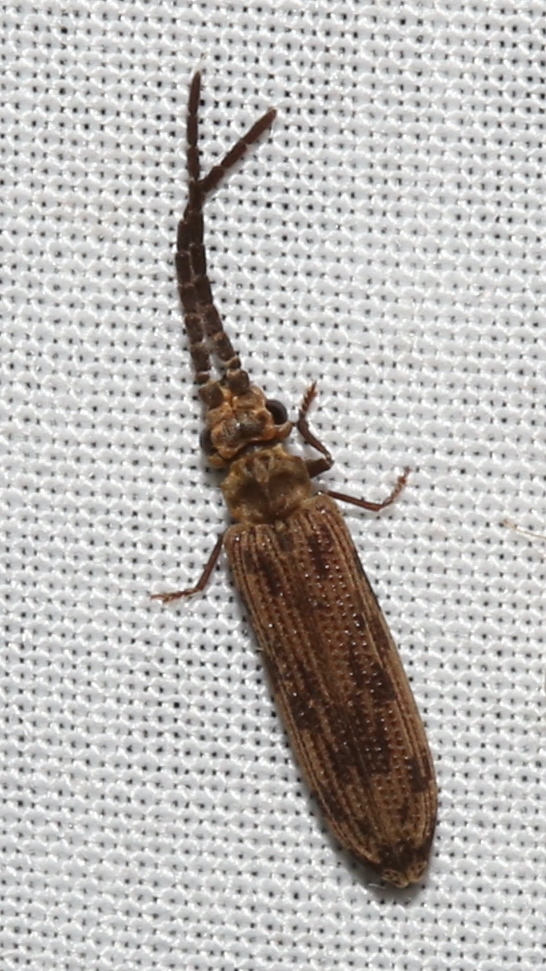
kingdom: Animalia
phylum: Arthropoda
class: Insecta
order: Coleoptera
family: Cupedidae
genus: Tenomerga
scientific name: Tenomerga cinerea
